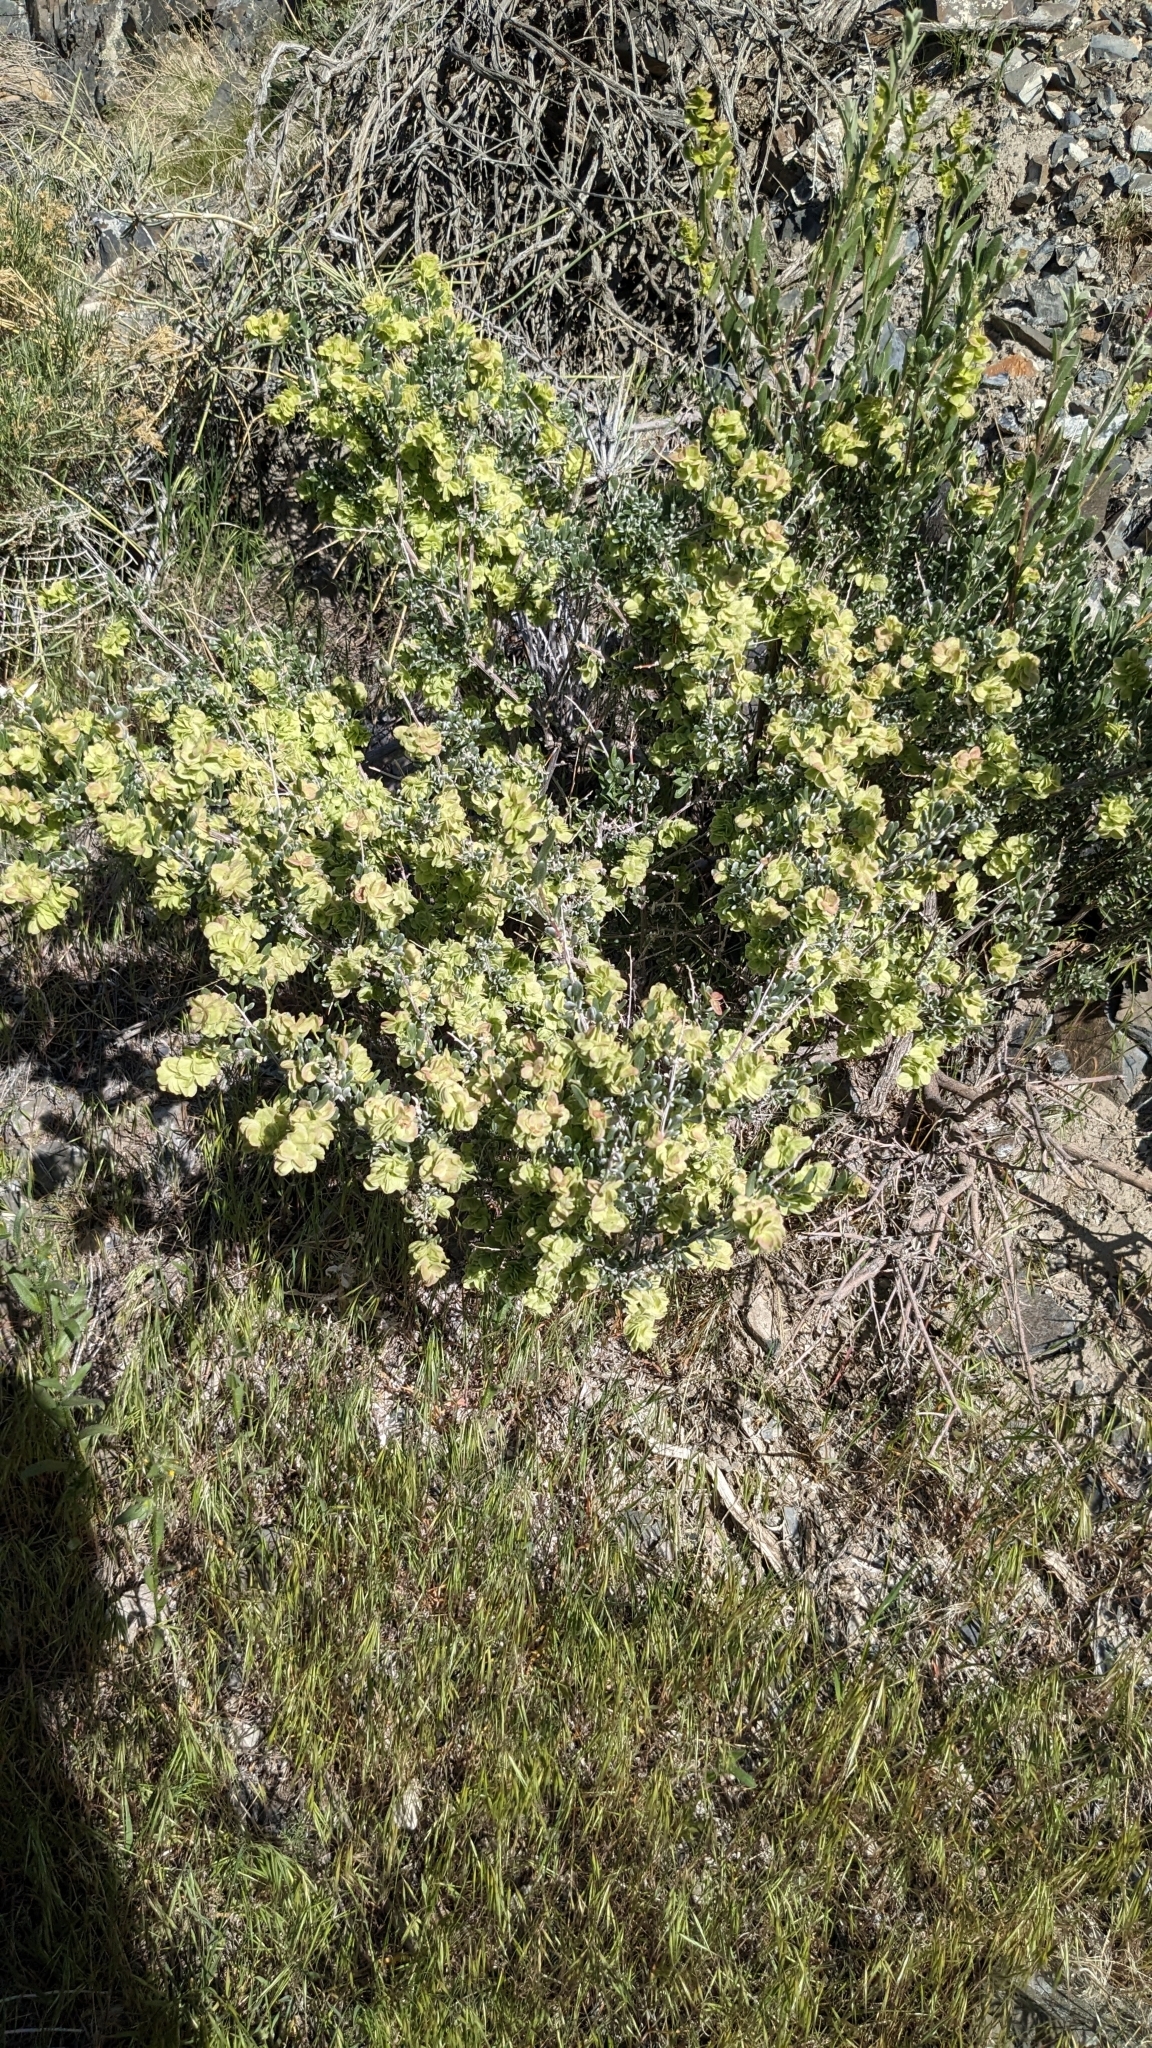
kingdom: Plantae
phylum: Tracheophyta
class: Magnoliopsida
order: Caryophyllales
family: Amaranthaceae
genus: Grayia
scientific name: Grayia spinosa
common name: Spiny hopsage
